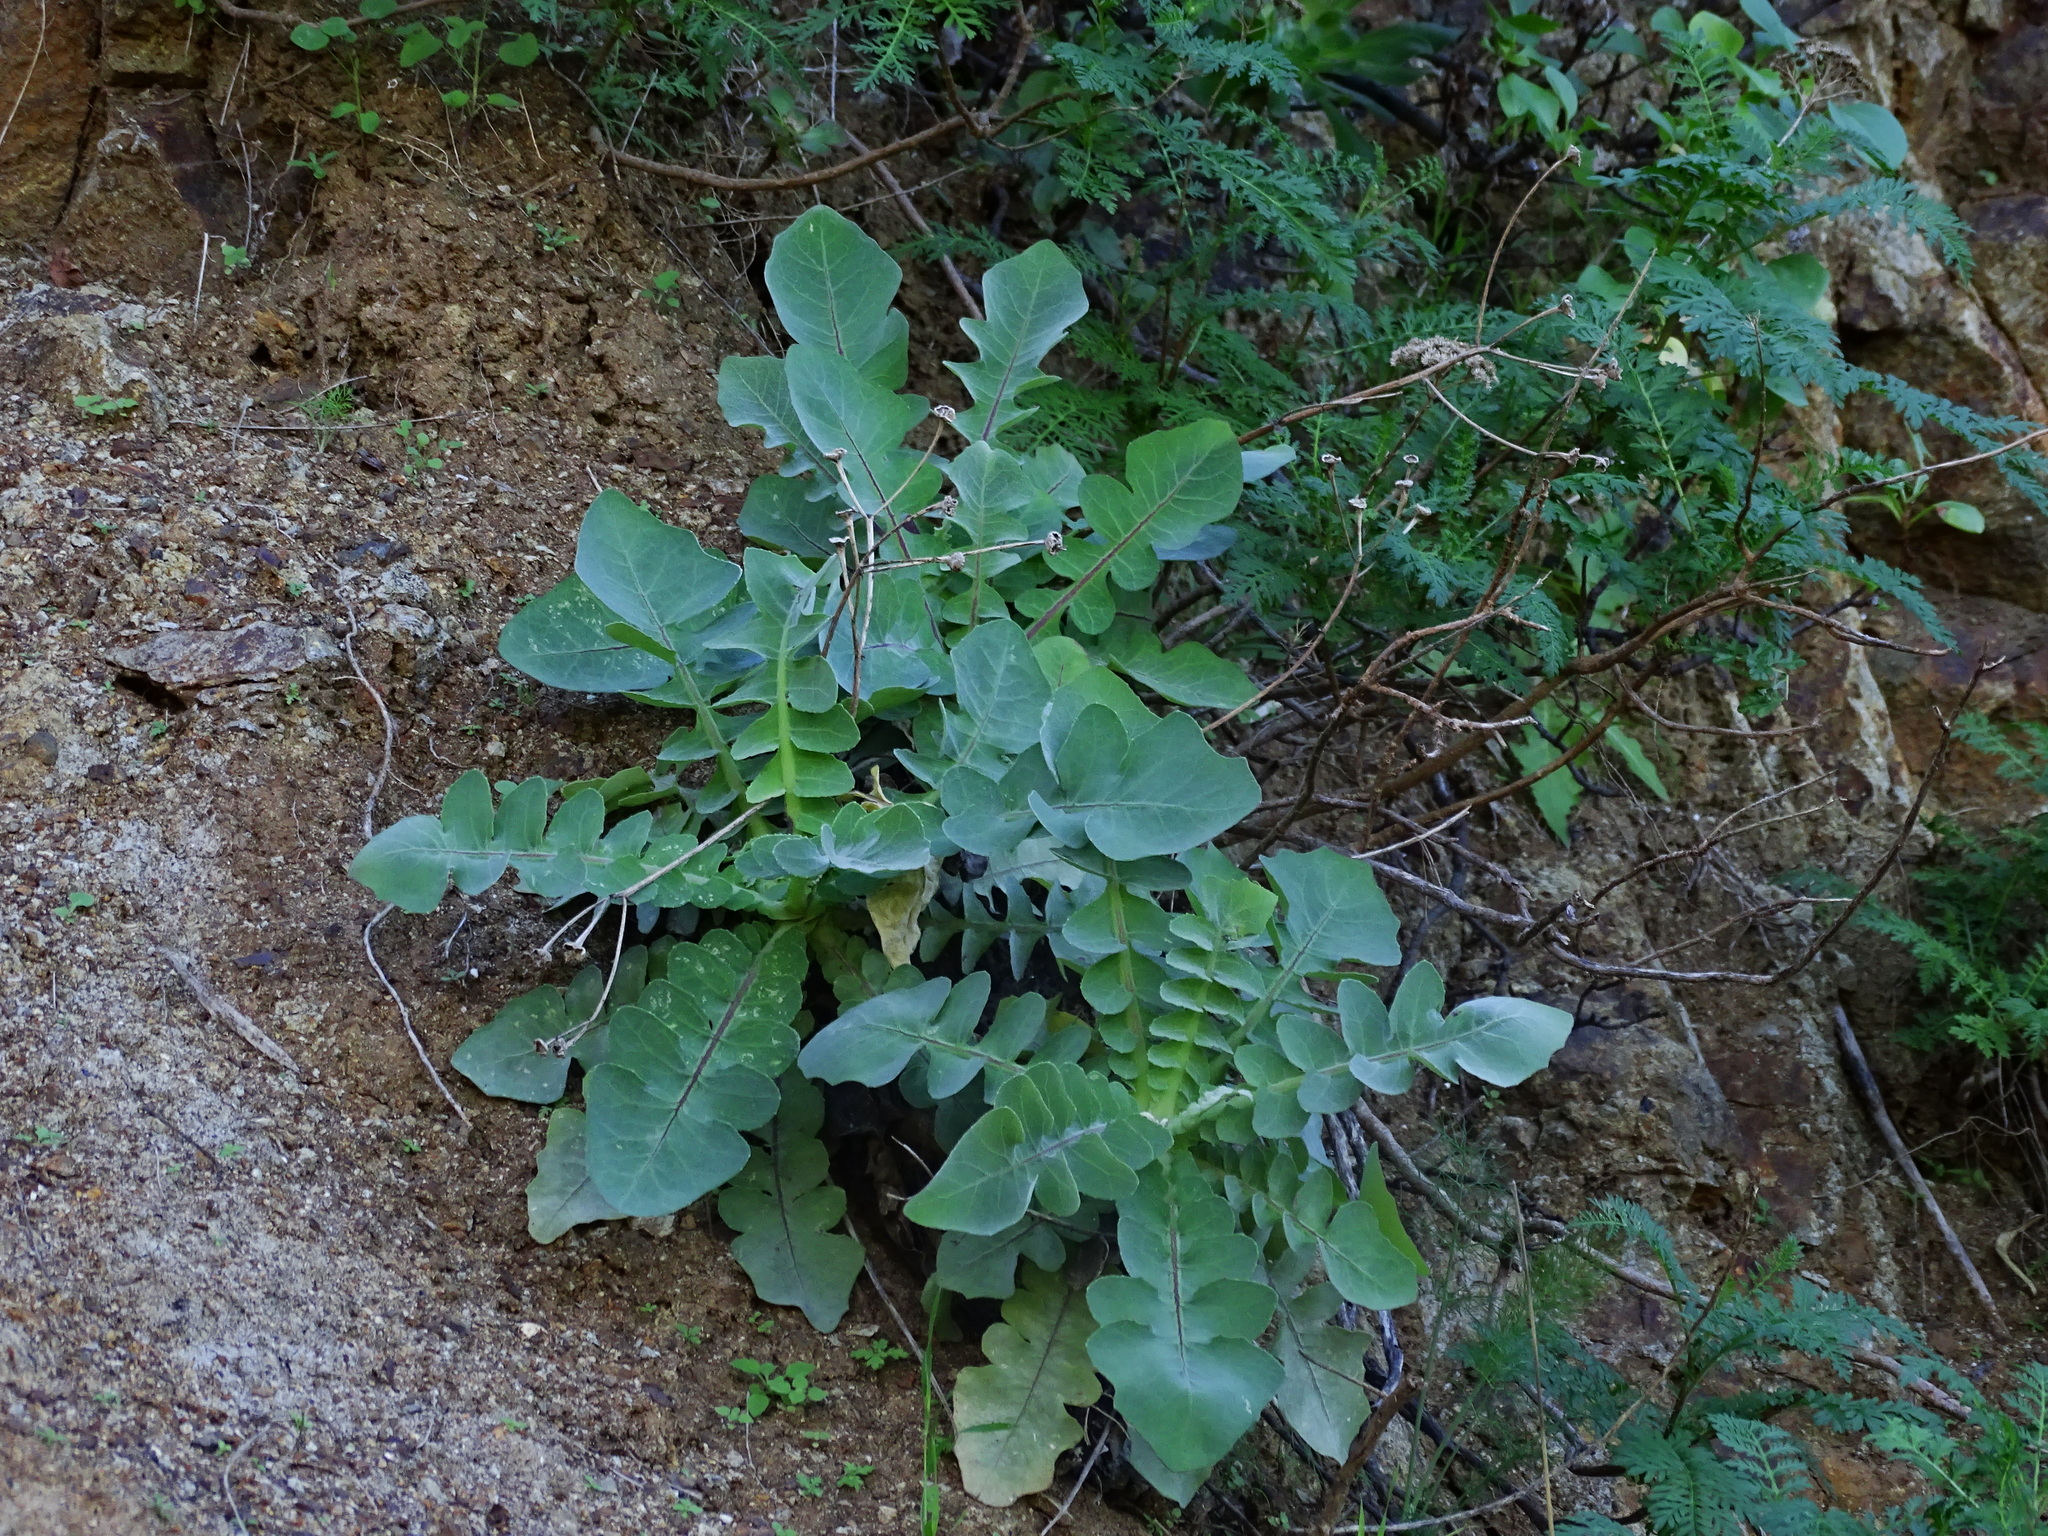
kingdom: Plantae
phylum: Tracheophyta
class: Magnoliopsida
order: Asterales
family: Asteraceae
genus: Sonchus
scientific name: Sonchus radicatus
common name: Long-rooted sow-thistle
